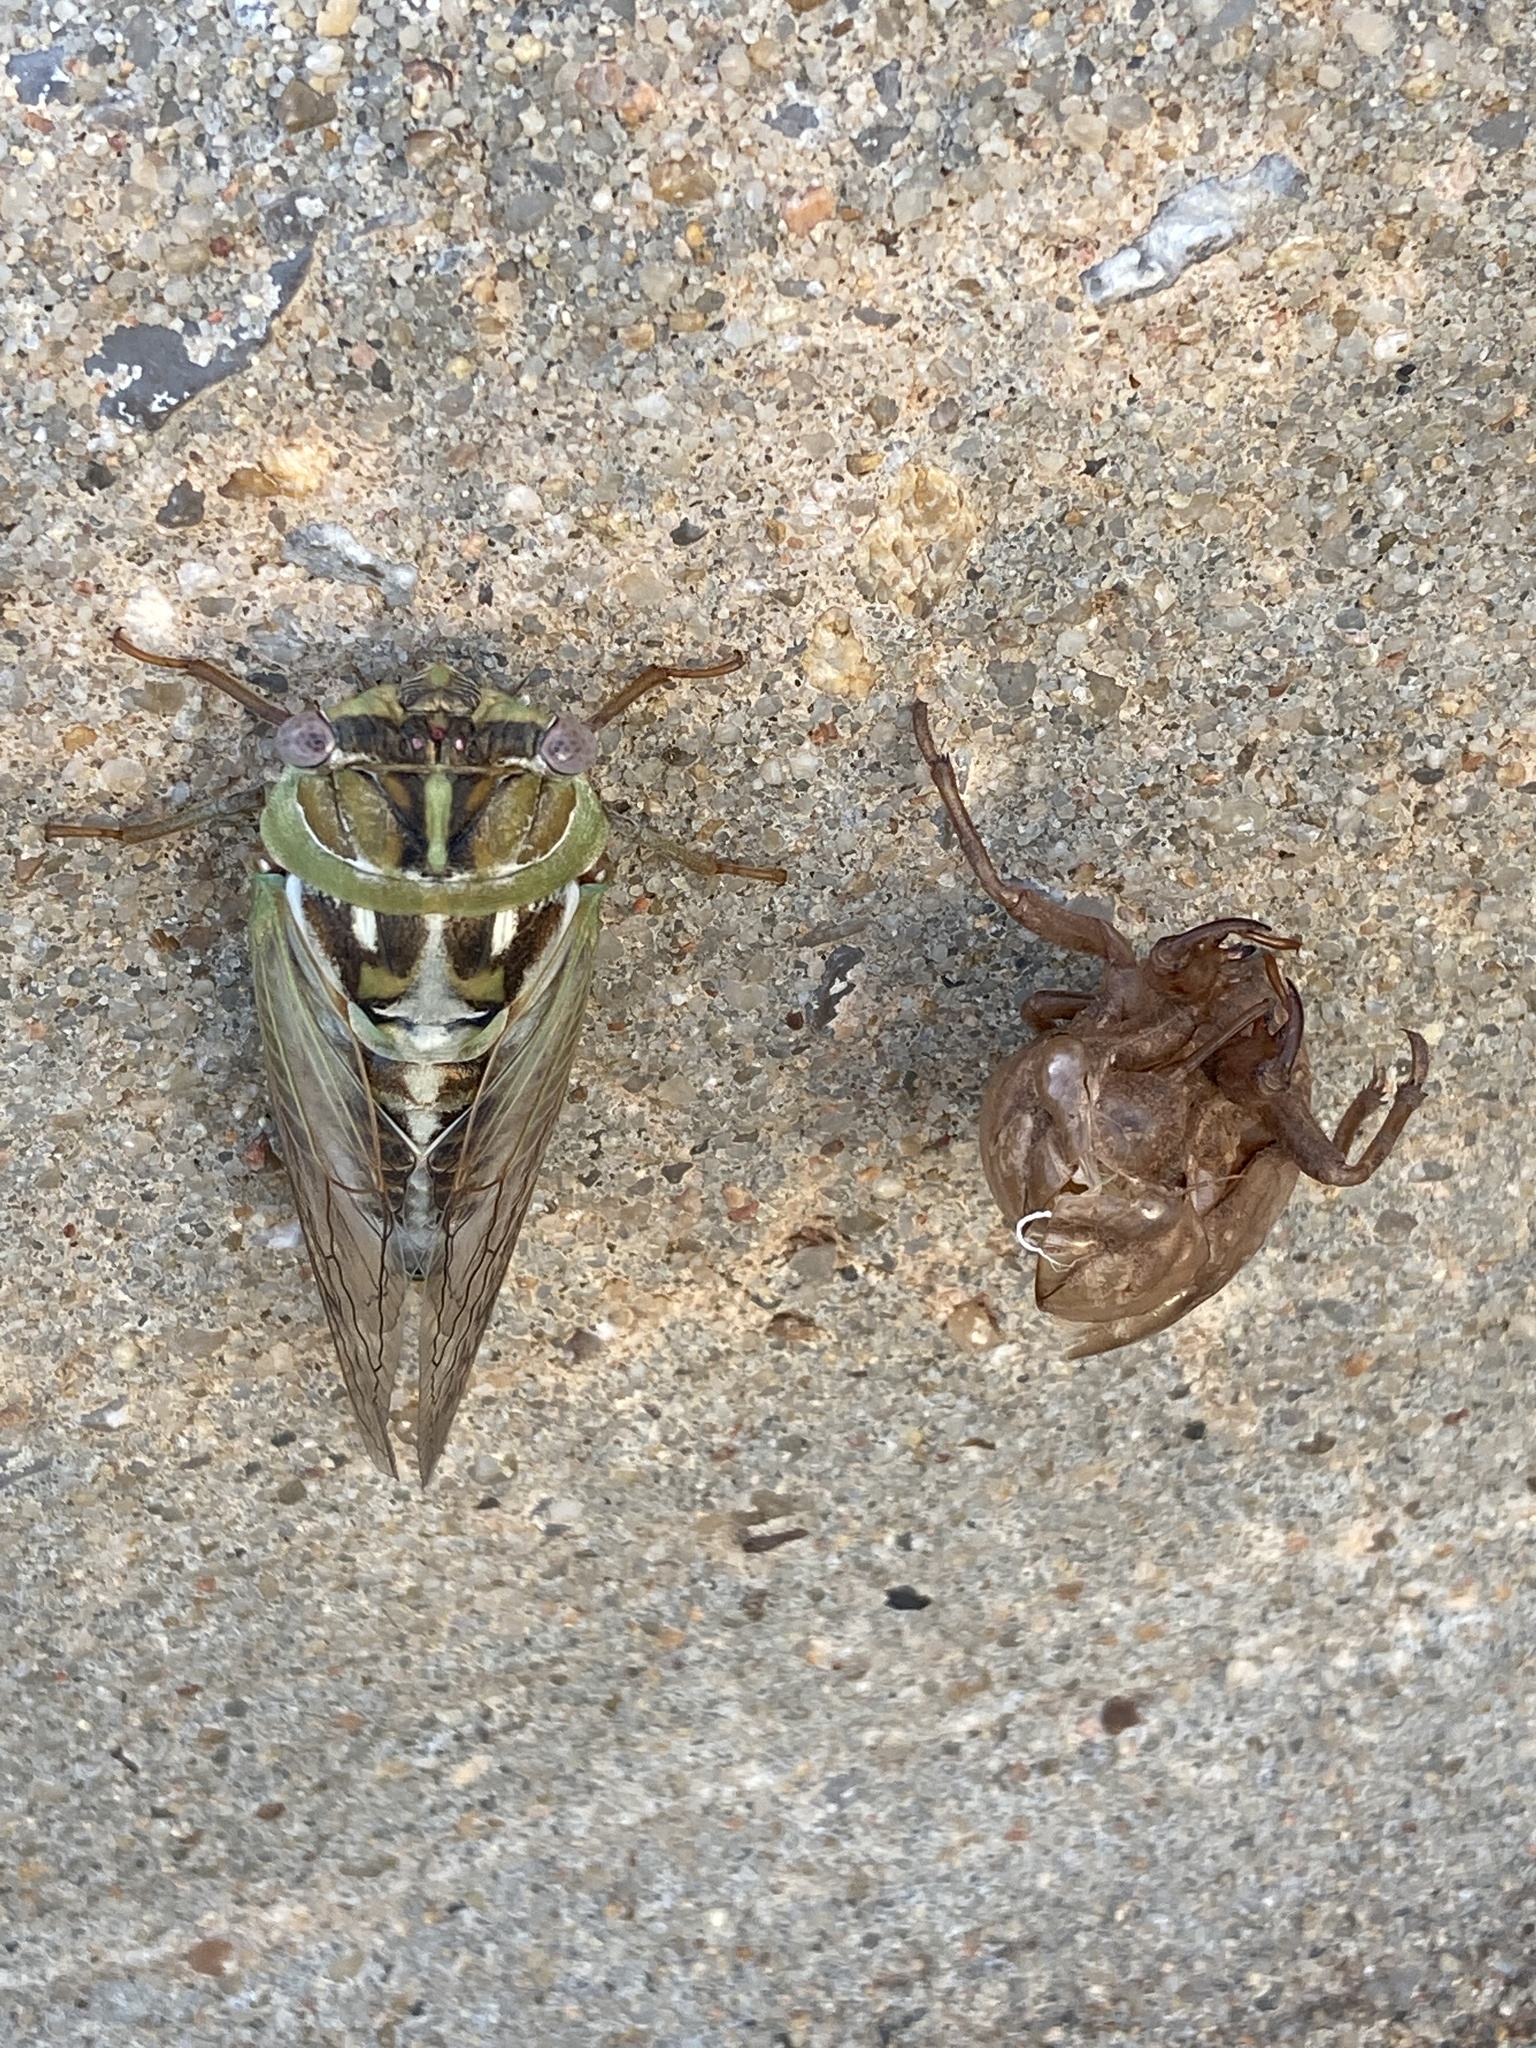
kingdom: Animalia
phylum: Arthropoda
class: Insecta
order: Hemiptera
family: Cicadidae
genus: Megatibicen
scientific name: Megatibicen dealbatus
